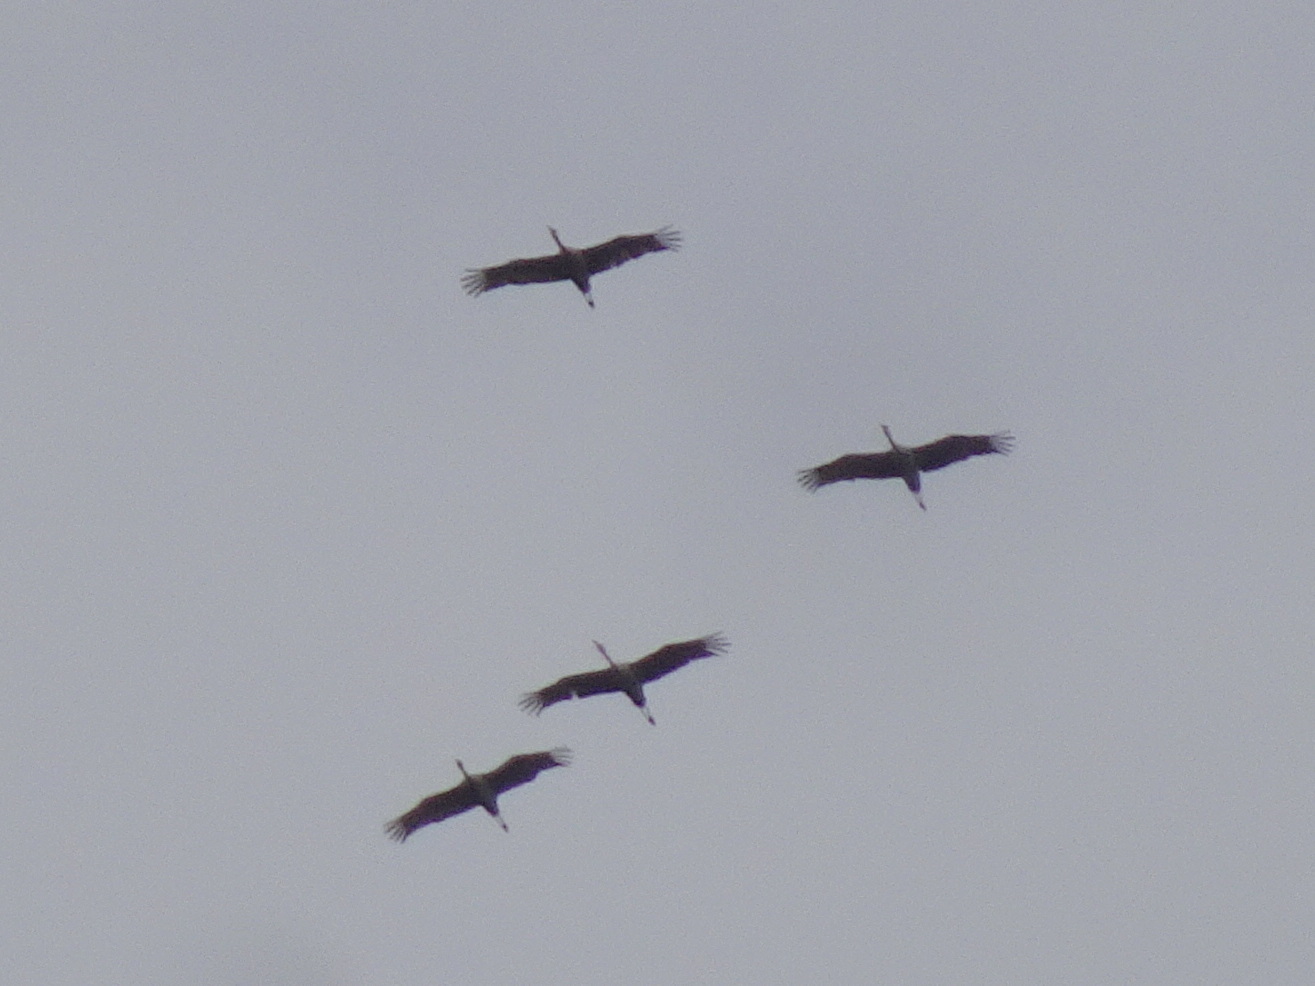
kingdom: Animalia
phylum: Chordata
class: Aves
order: Gruiformes
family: Gruidae
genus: Grus
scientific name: Grus canadensis
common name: Sandhill crane
